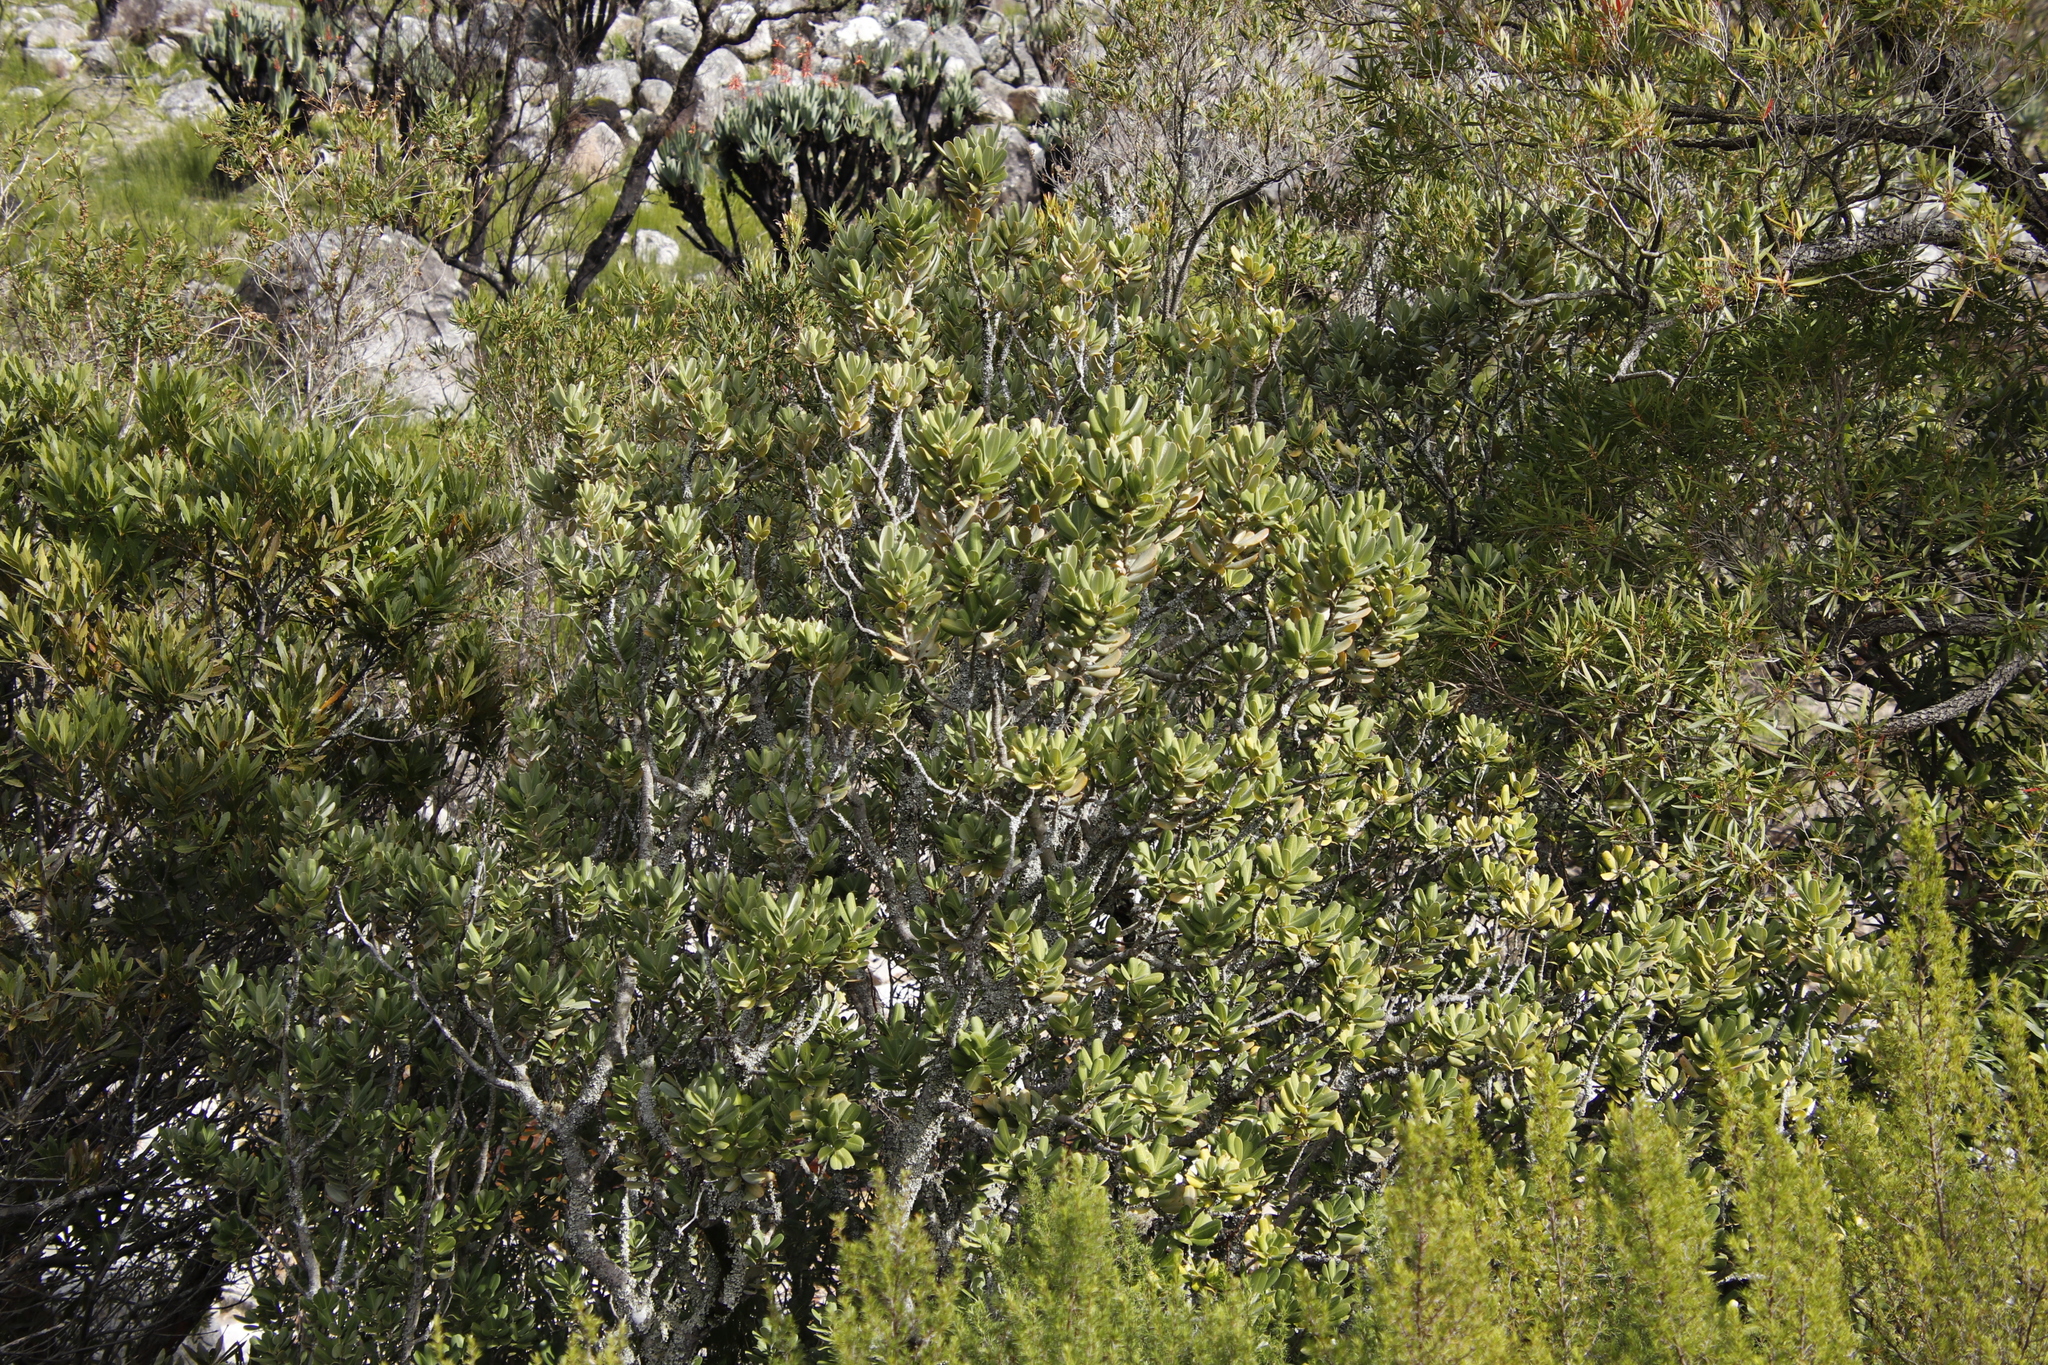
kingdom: Plantae
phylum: Tracheophyta
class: Magnoliopsida
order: Sapindales
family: Anacardiaceae
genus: Heeria
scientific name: Heeria argentea
